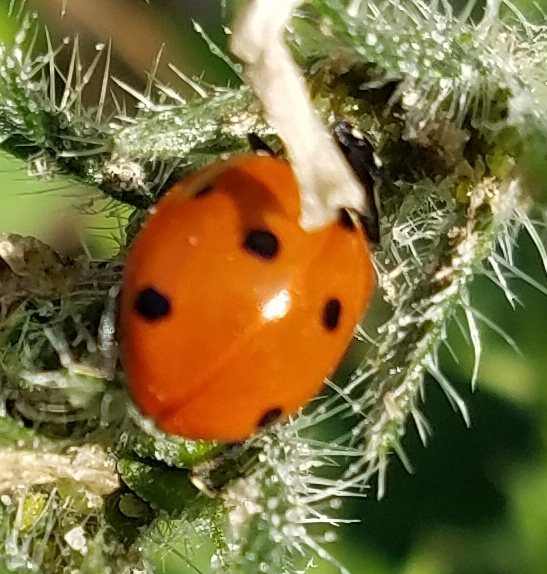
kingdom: Animalia
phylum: Arthropoda
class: Insecta
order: Coleoptera
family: Coccinellidae
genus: Coccinella
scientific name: Coccinella septempunctata
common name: Sevenspotted lady beetle
